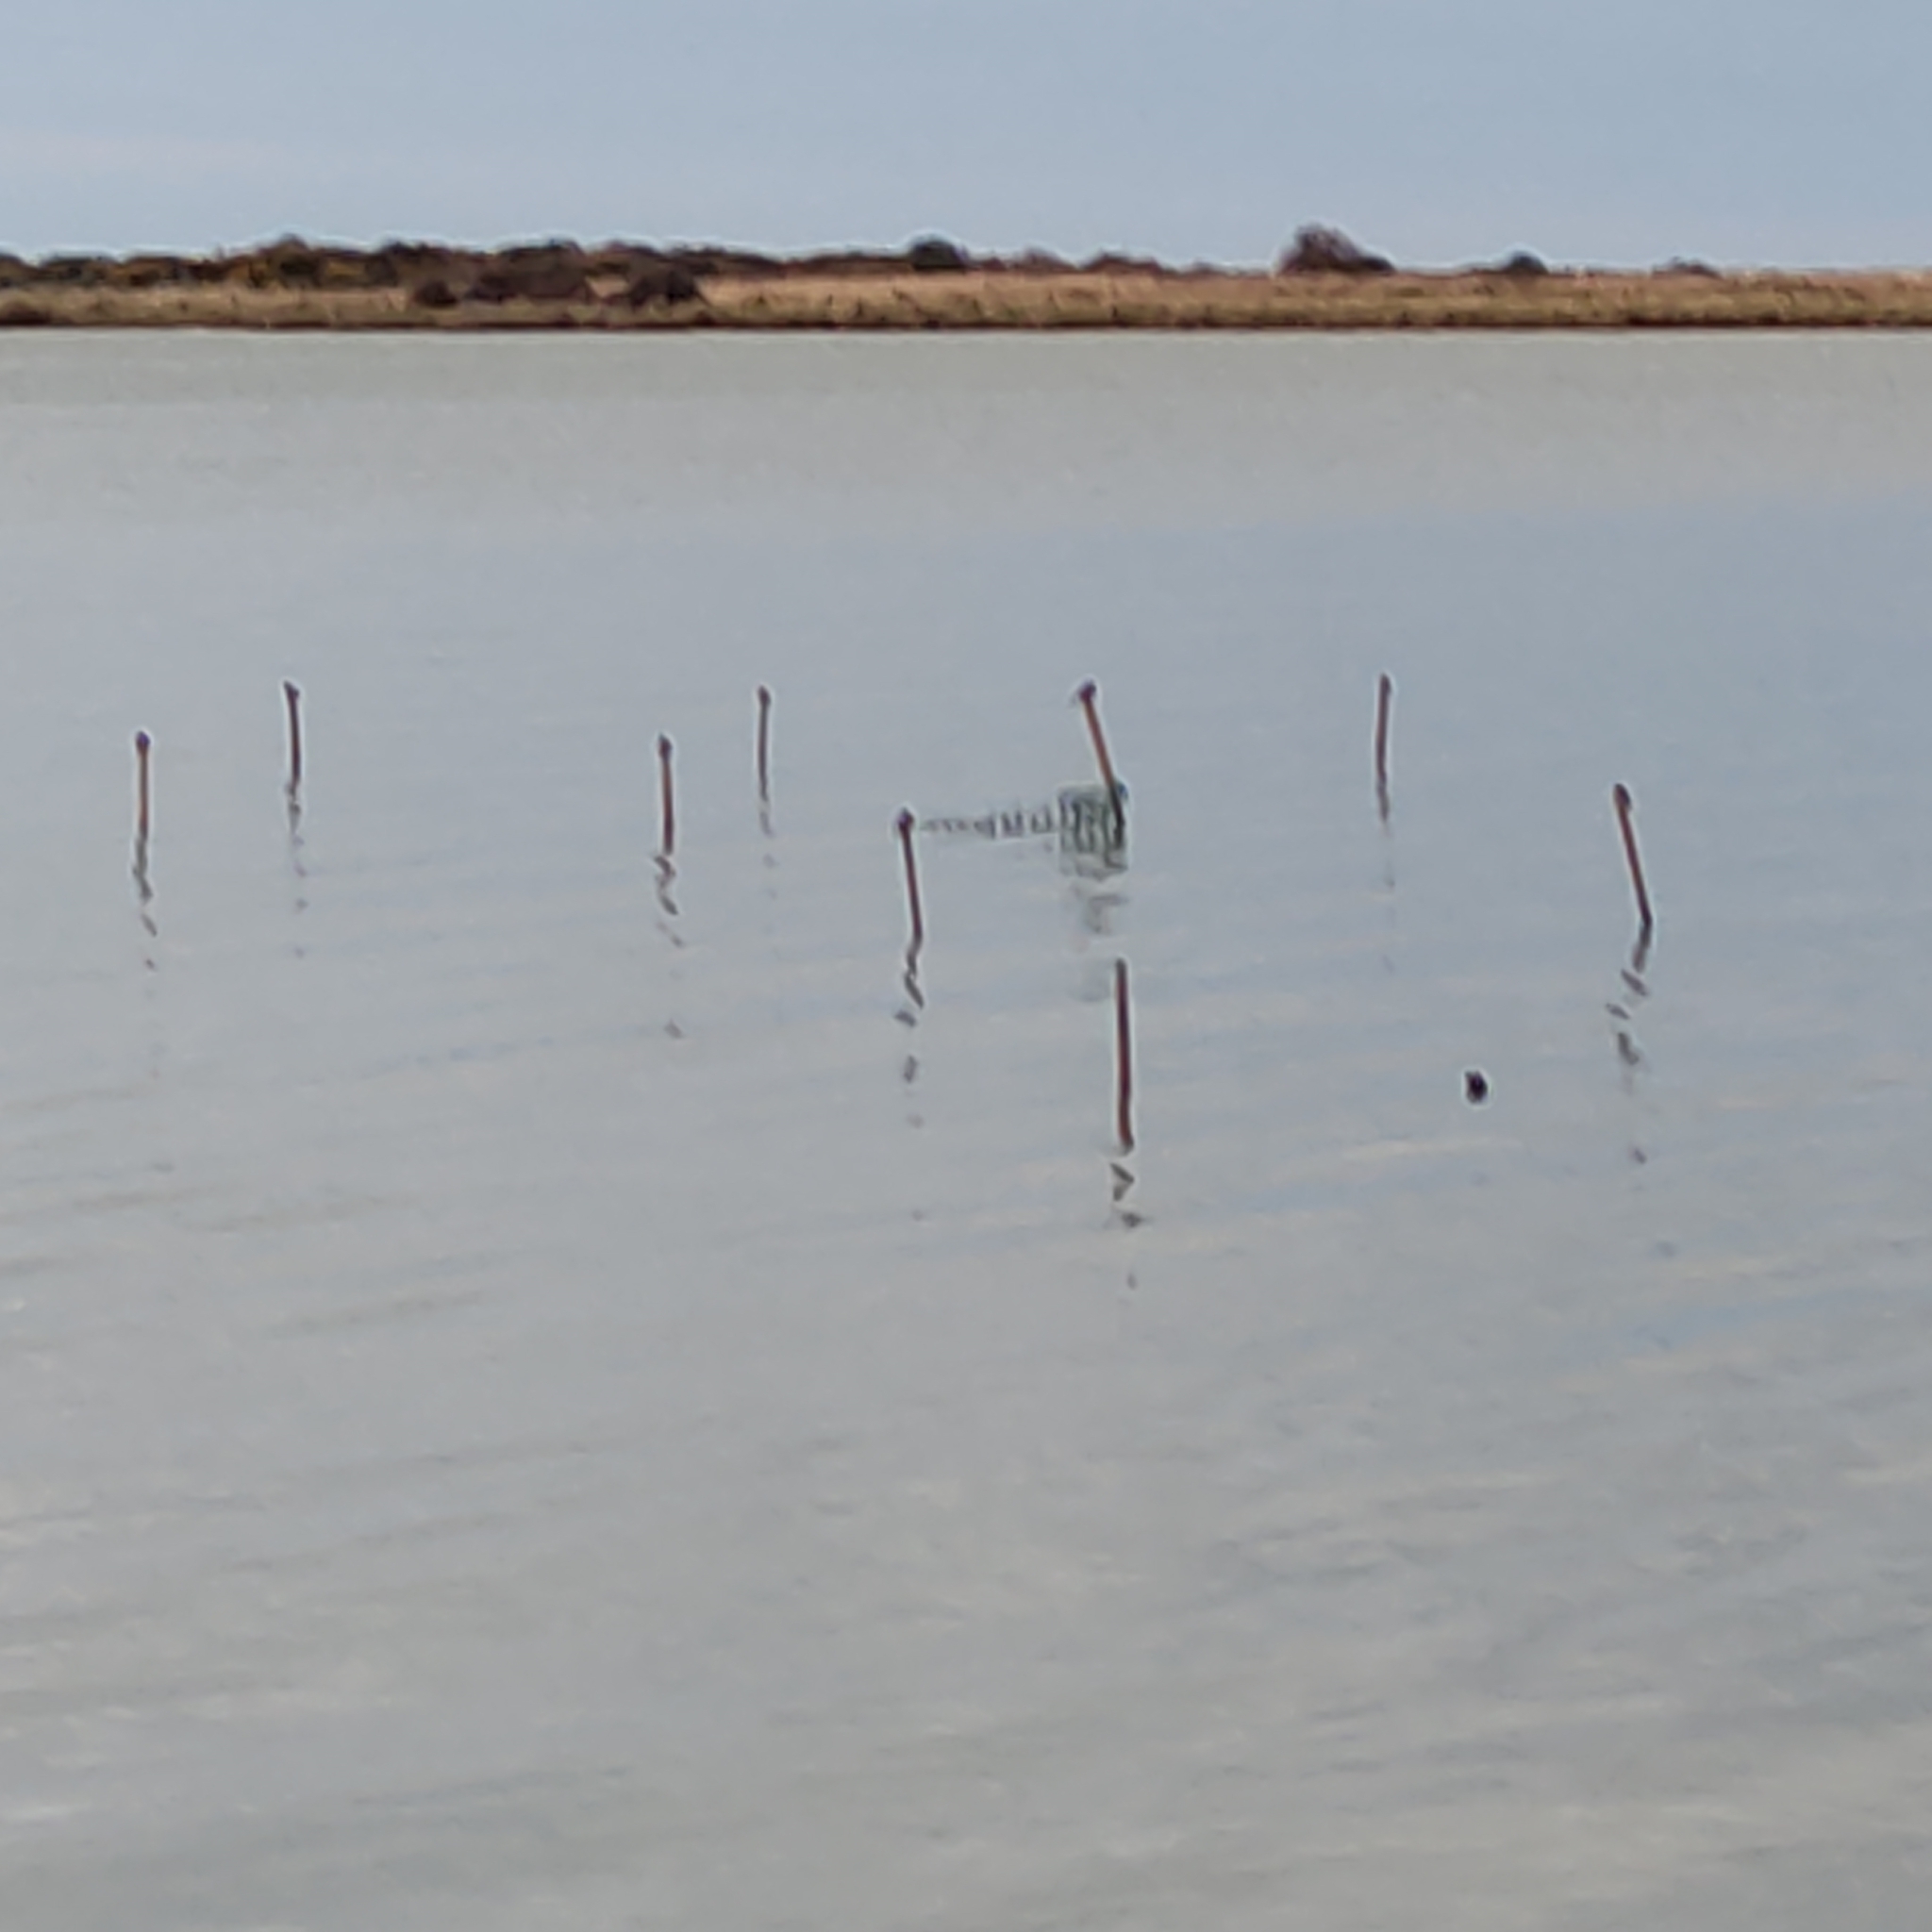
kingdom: Animalia
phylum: Chordata
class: Aves
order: Passeriformes
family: Hirundinidae
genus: Hirundo
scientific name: Hirundo neoxena
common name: Welcome swallow
